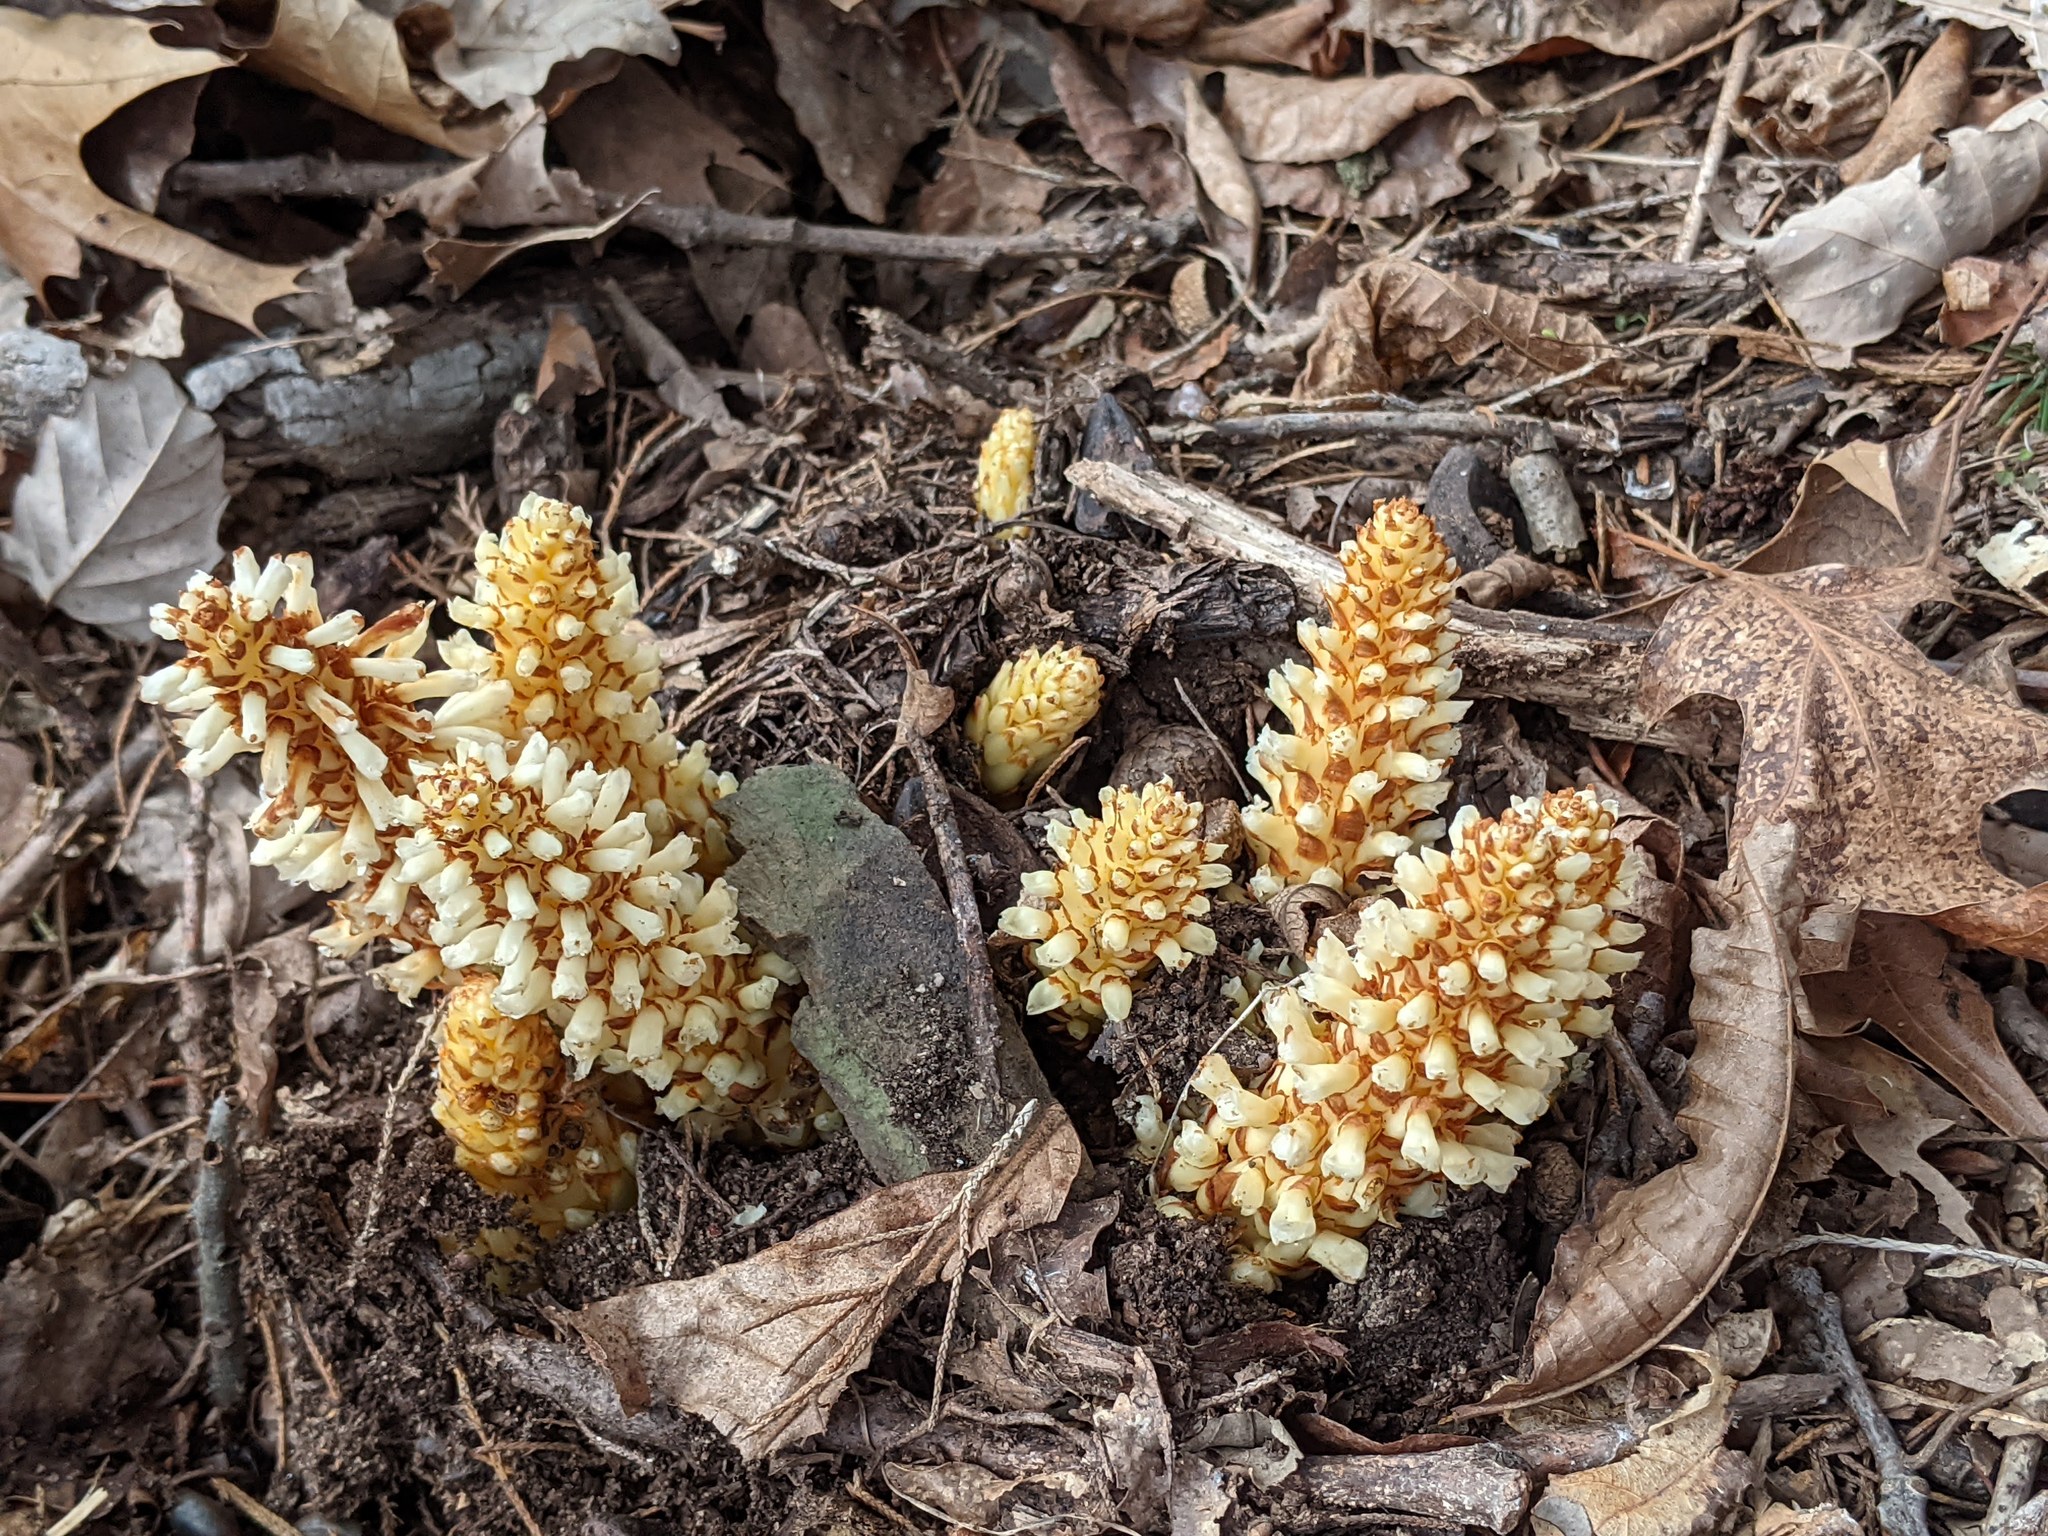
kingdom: Plantae
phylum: Tracheophyta
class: Magnoliopsida
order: Lamiales
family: Orobanchaceae
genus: Conopholis
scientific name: Conopholis americana
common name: American cancer-root
